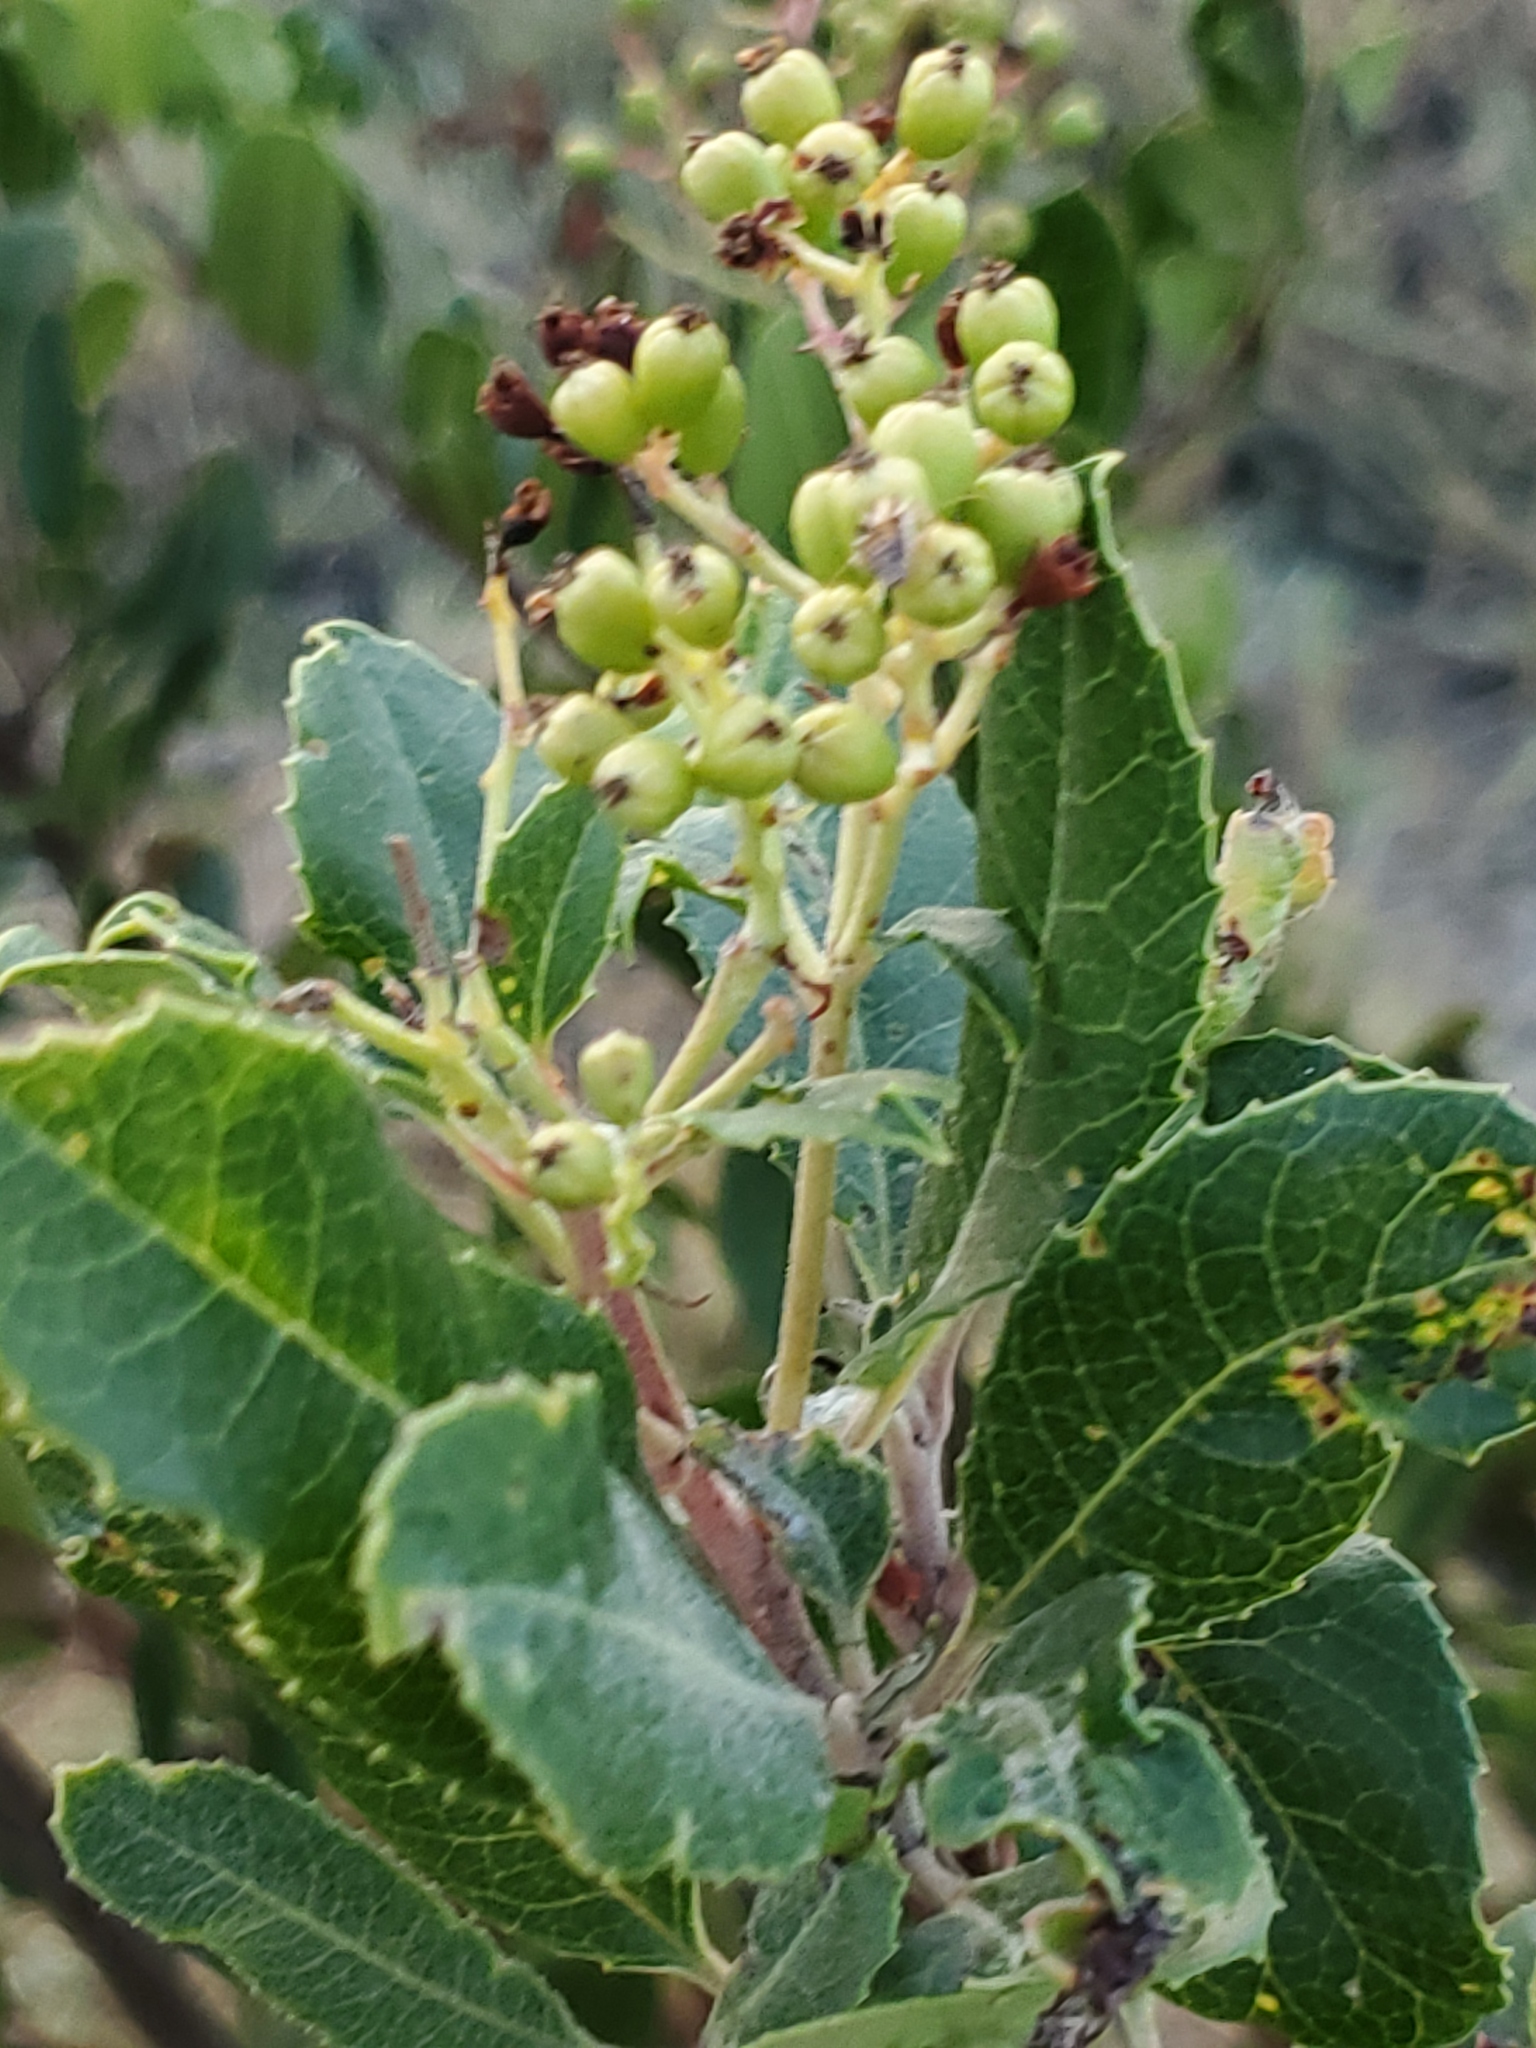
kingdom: Plantae
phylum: Tracheophyta
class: Magnoliopsida
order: Rosales
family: Rosaceae
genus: Heteromeles
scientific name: Heteromeles arbutifolia
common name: California-holly
